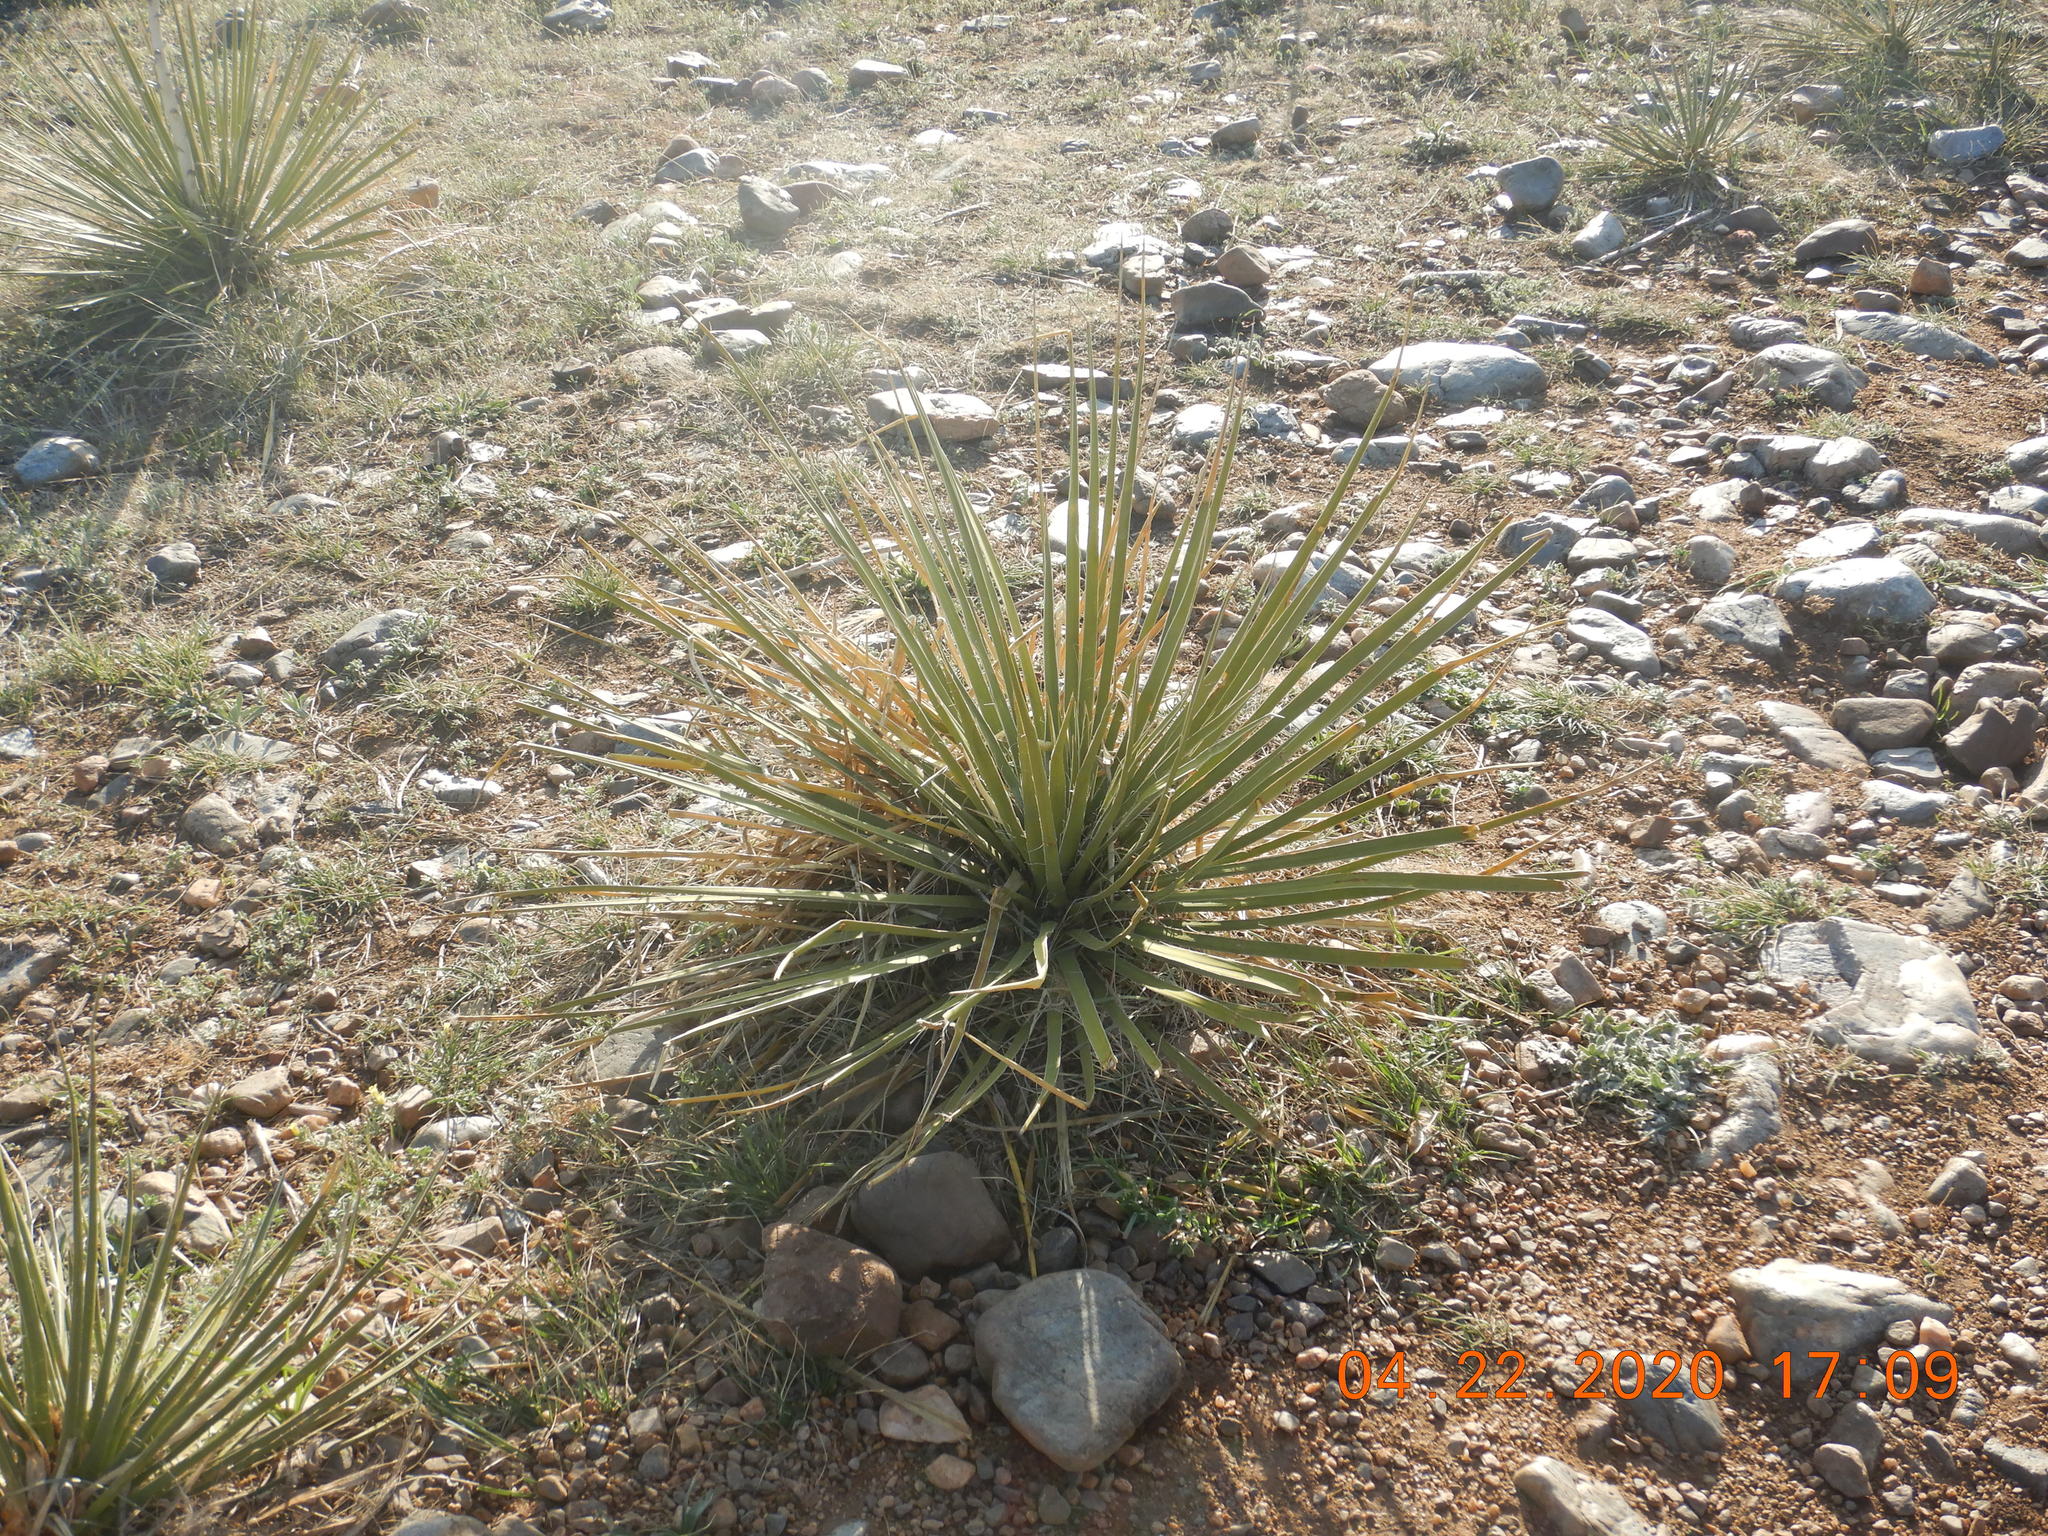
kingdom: Plantae
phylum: Tracheophyta
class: Liliopsida
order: Asparagales
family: Asparagaceae
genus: Yucca
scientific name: Yucca glauca
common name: Great plains yucca
